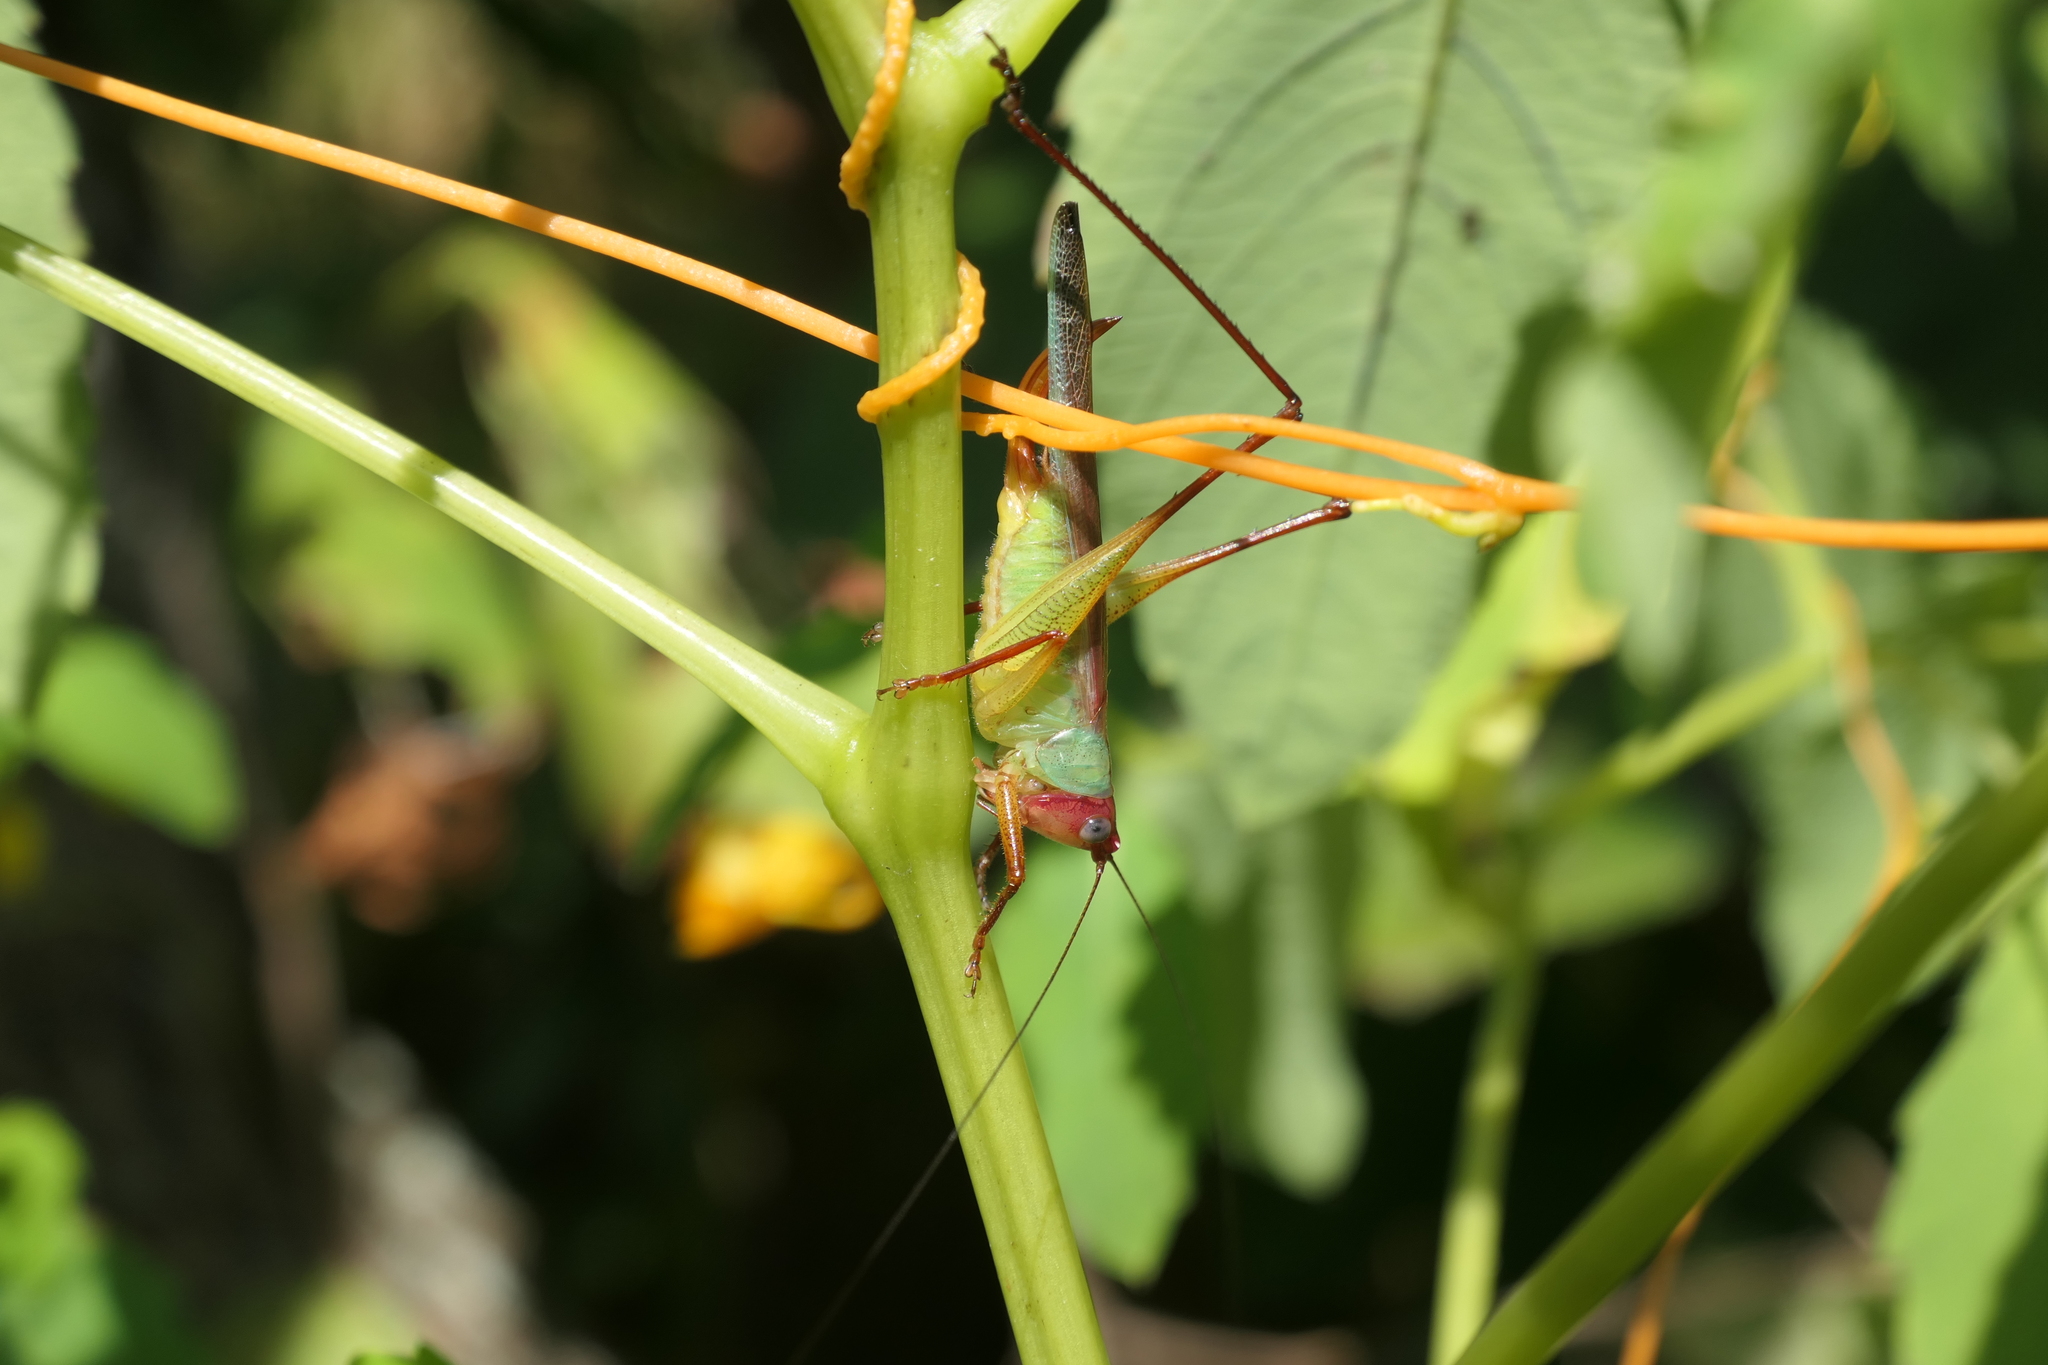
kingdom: Animalia
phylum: Arthropoda
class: Insecta
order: Orthoptera
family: Tettigoniidae
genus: Orchelimum
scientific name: Orchelimum pulchellum
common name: Handsome meadow katydid
